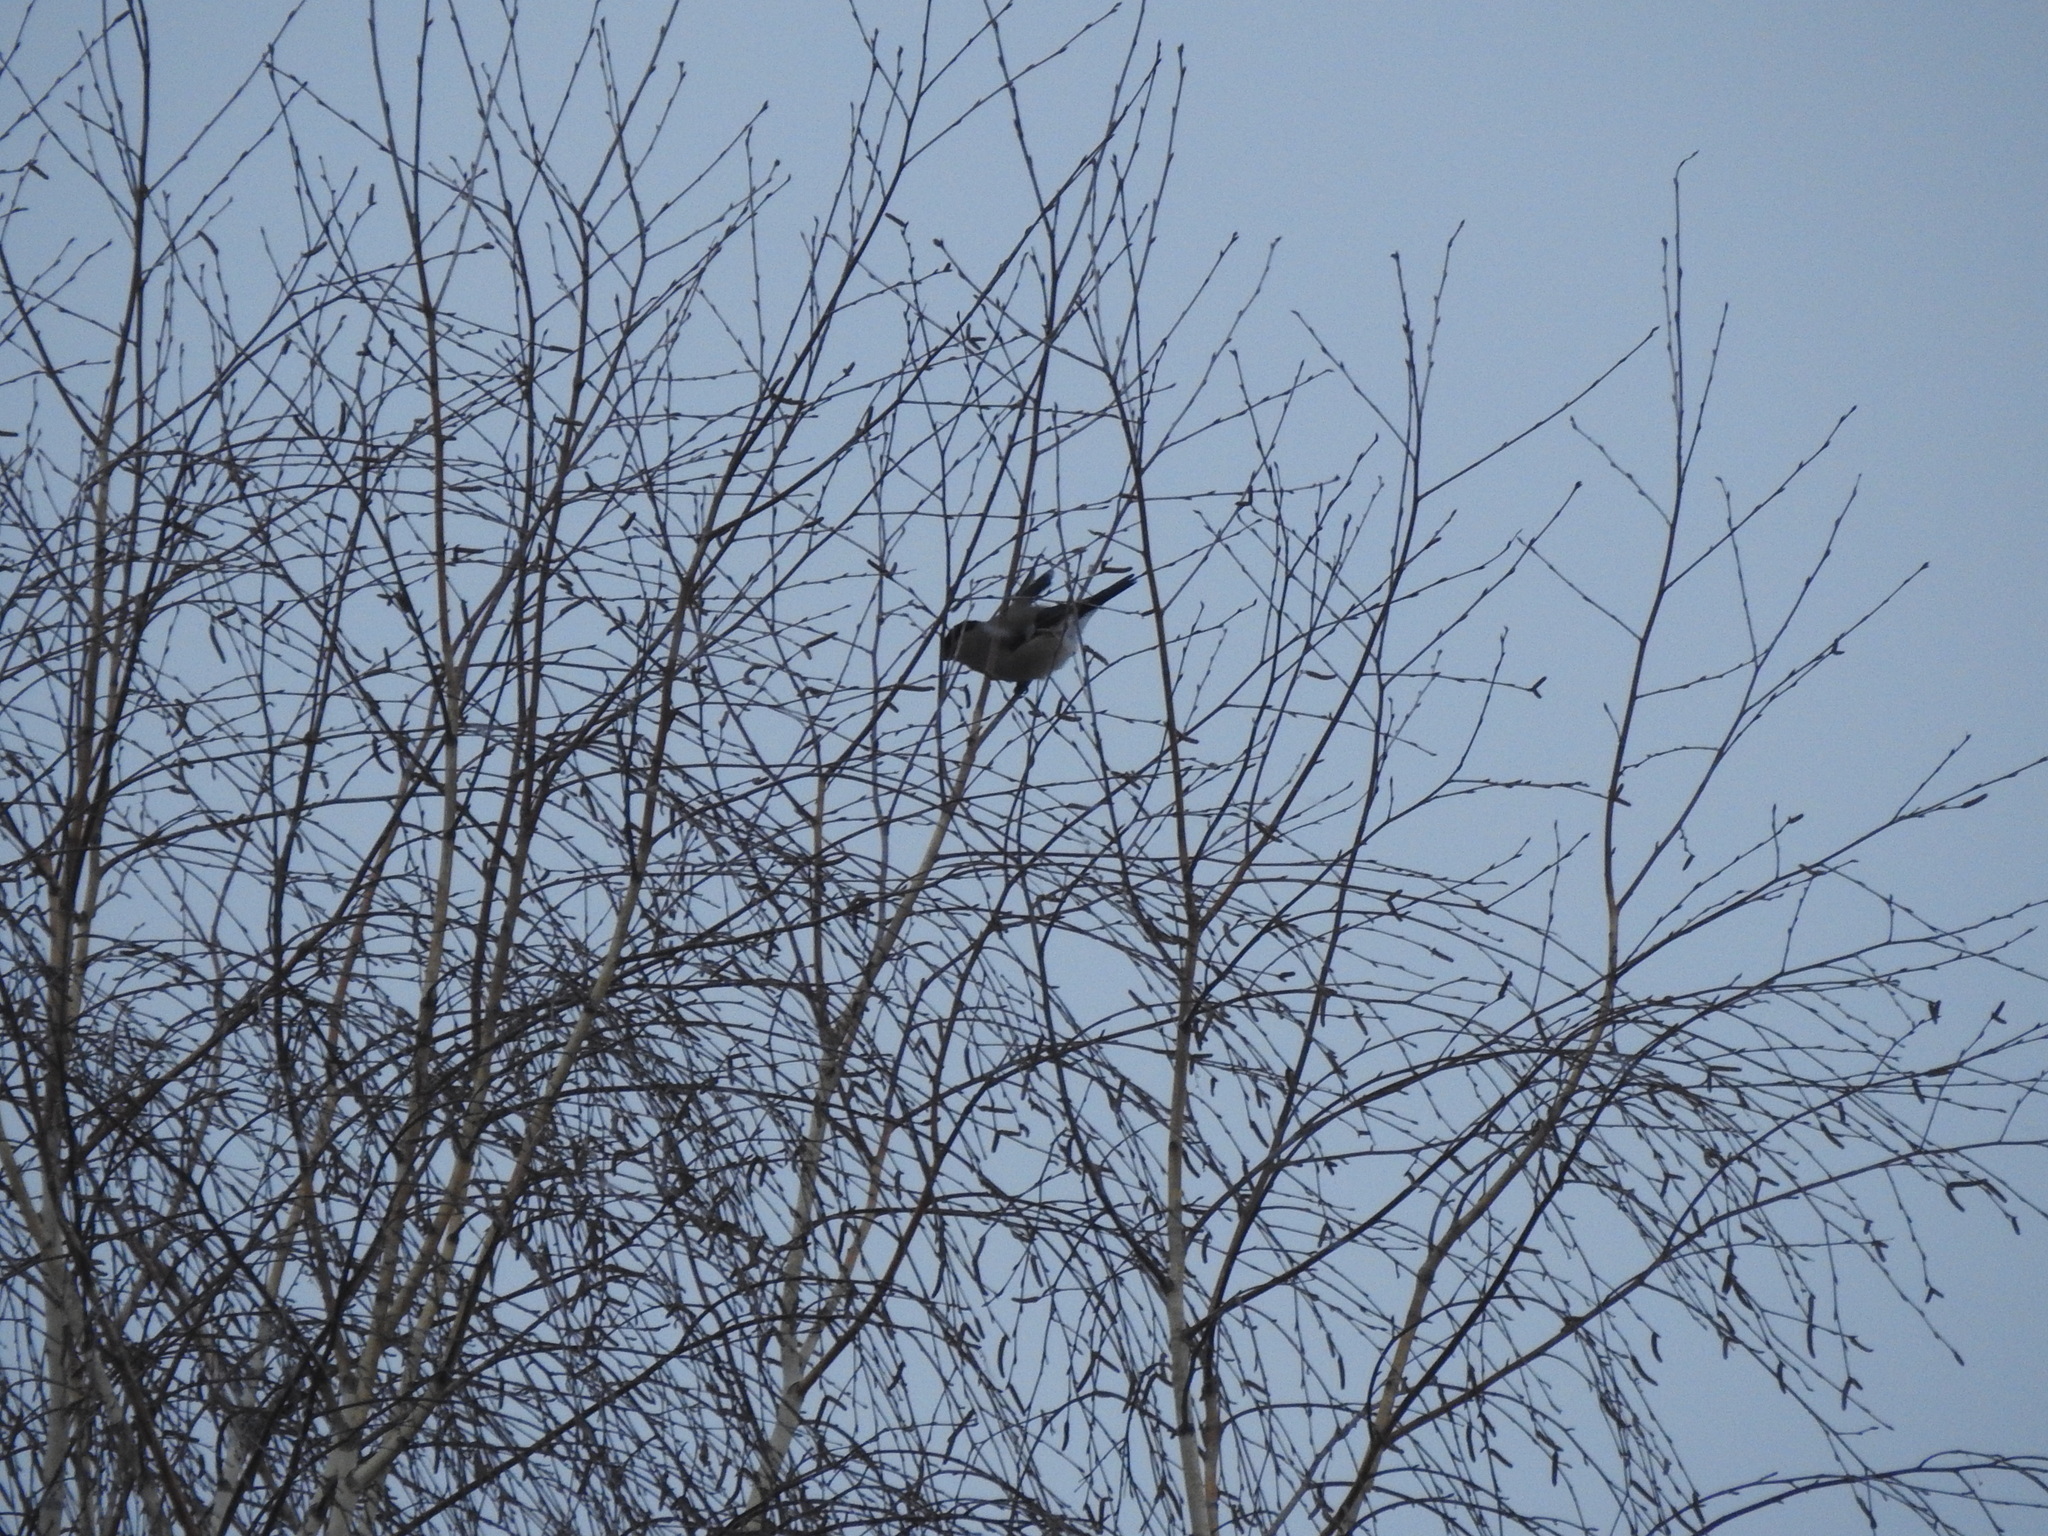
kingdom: Animalia
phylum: Chordata
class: Aves
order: Passeriformes
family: Fringillidae
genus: Pyrrhula
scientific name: Pyrrhula pyrrhula
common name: Eurasian bullfinch
